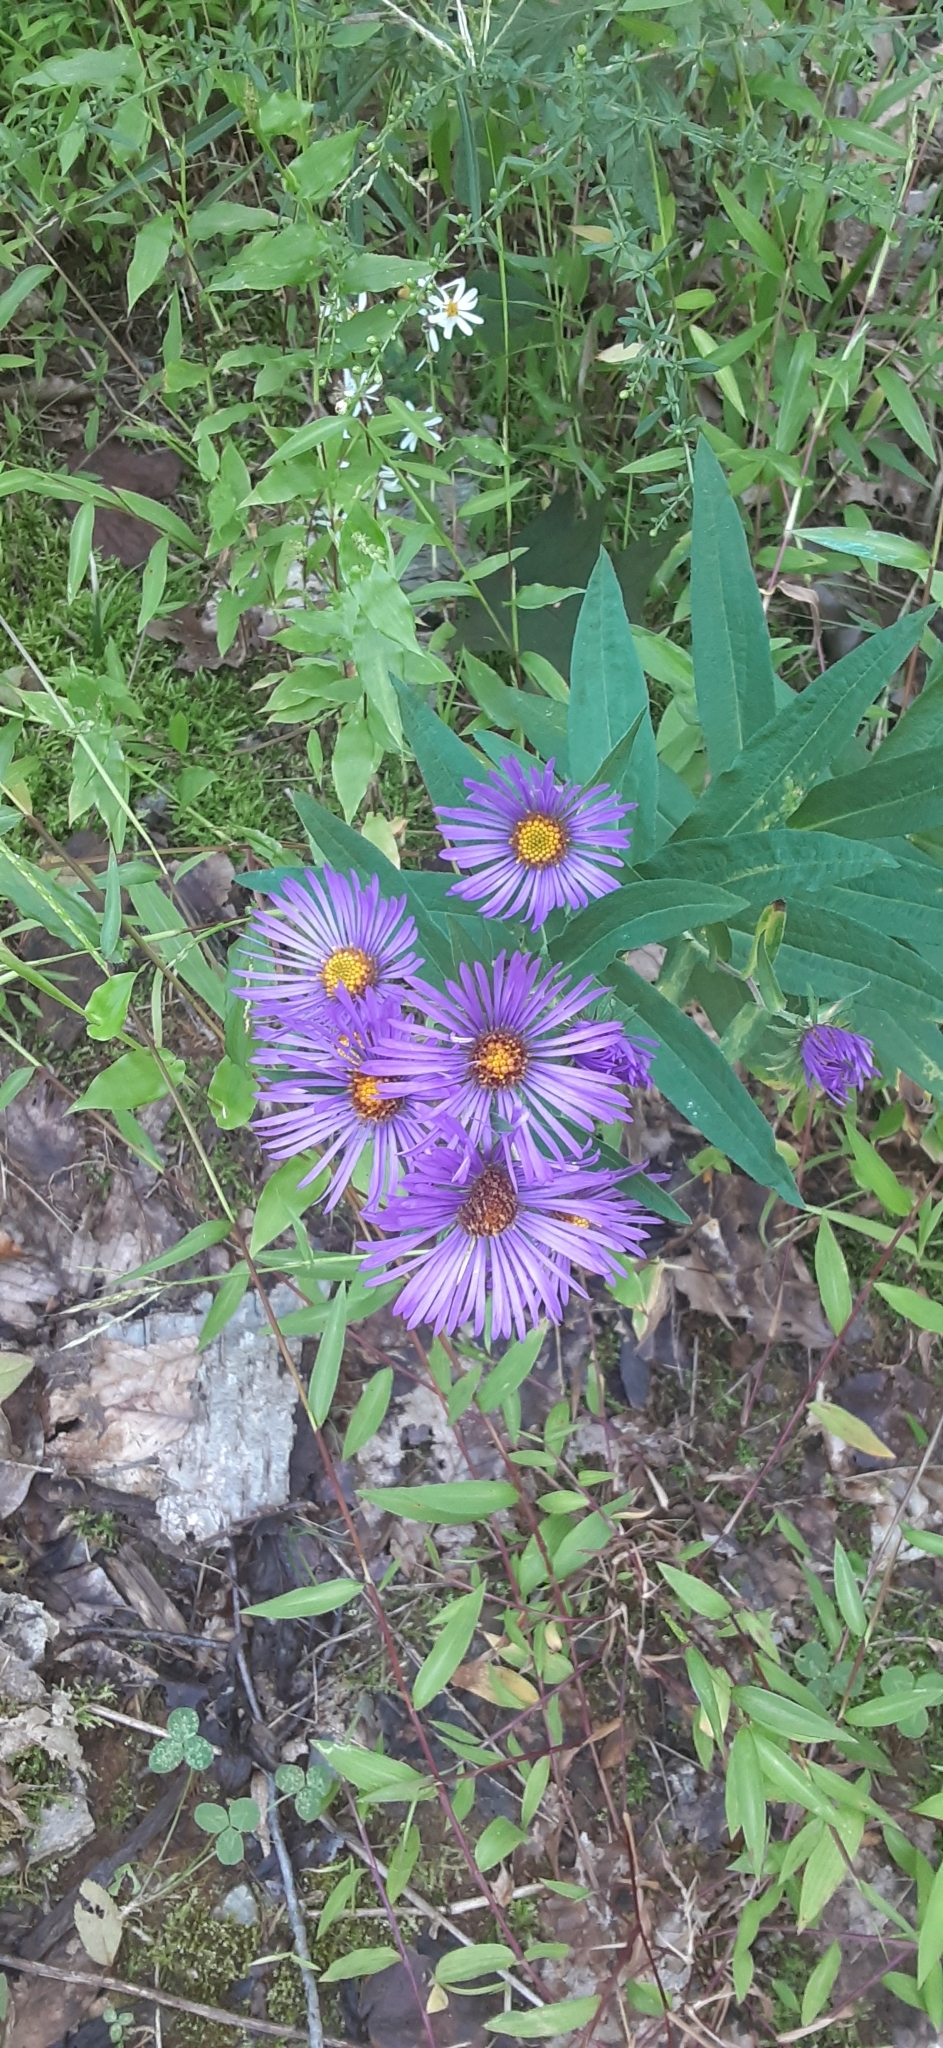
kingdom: Plantae
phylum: Tracheophyta
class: Magnoliopsida
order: Asterales
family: Asteraceae
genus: Symphyotrichum
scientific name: Symphyotrichum novae-angliae
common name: Michaelmas daisy
